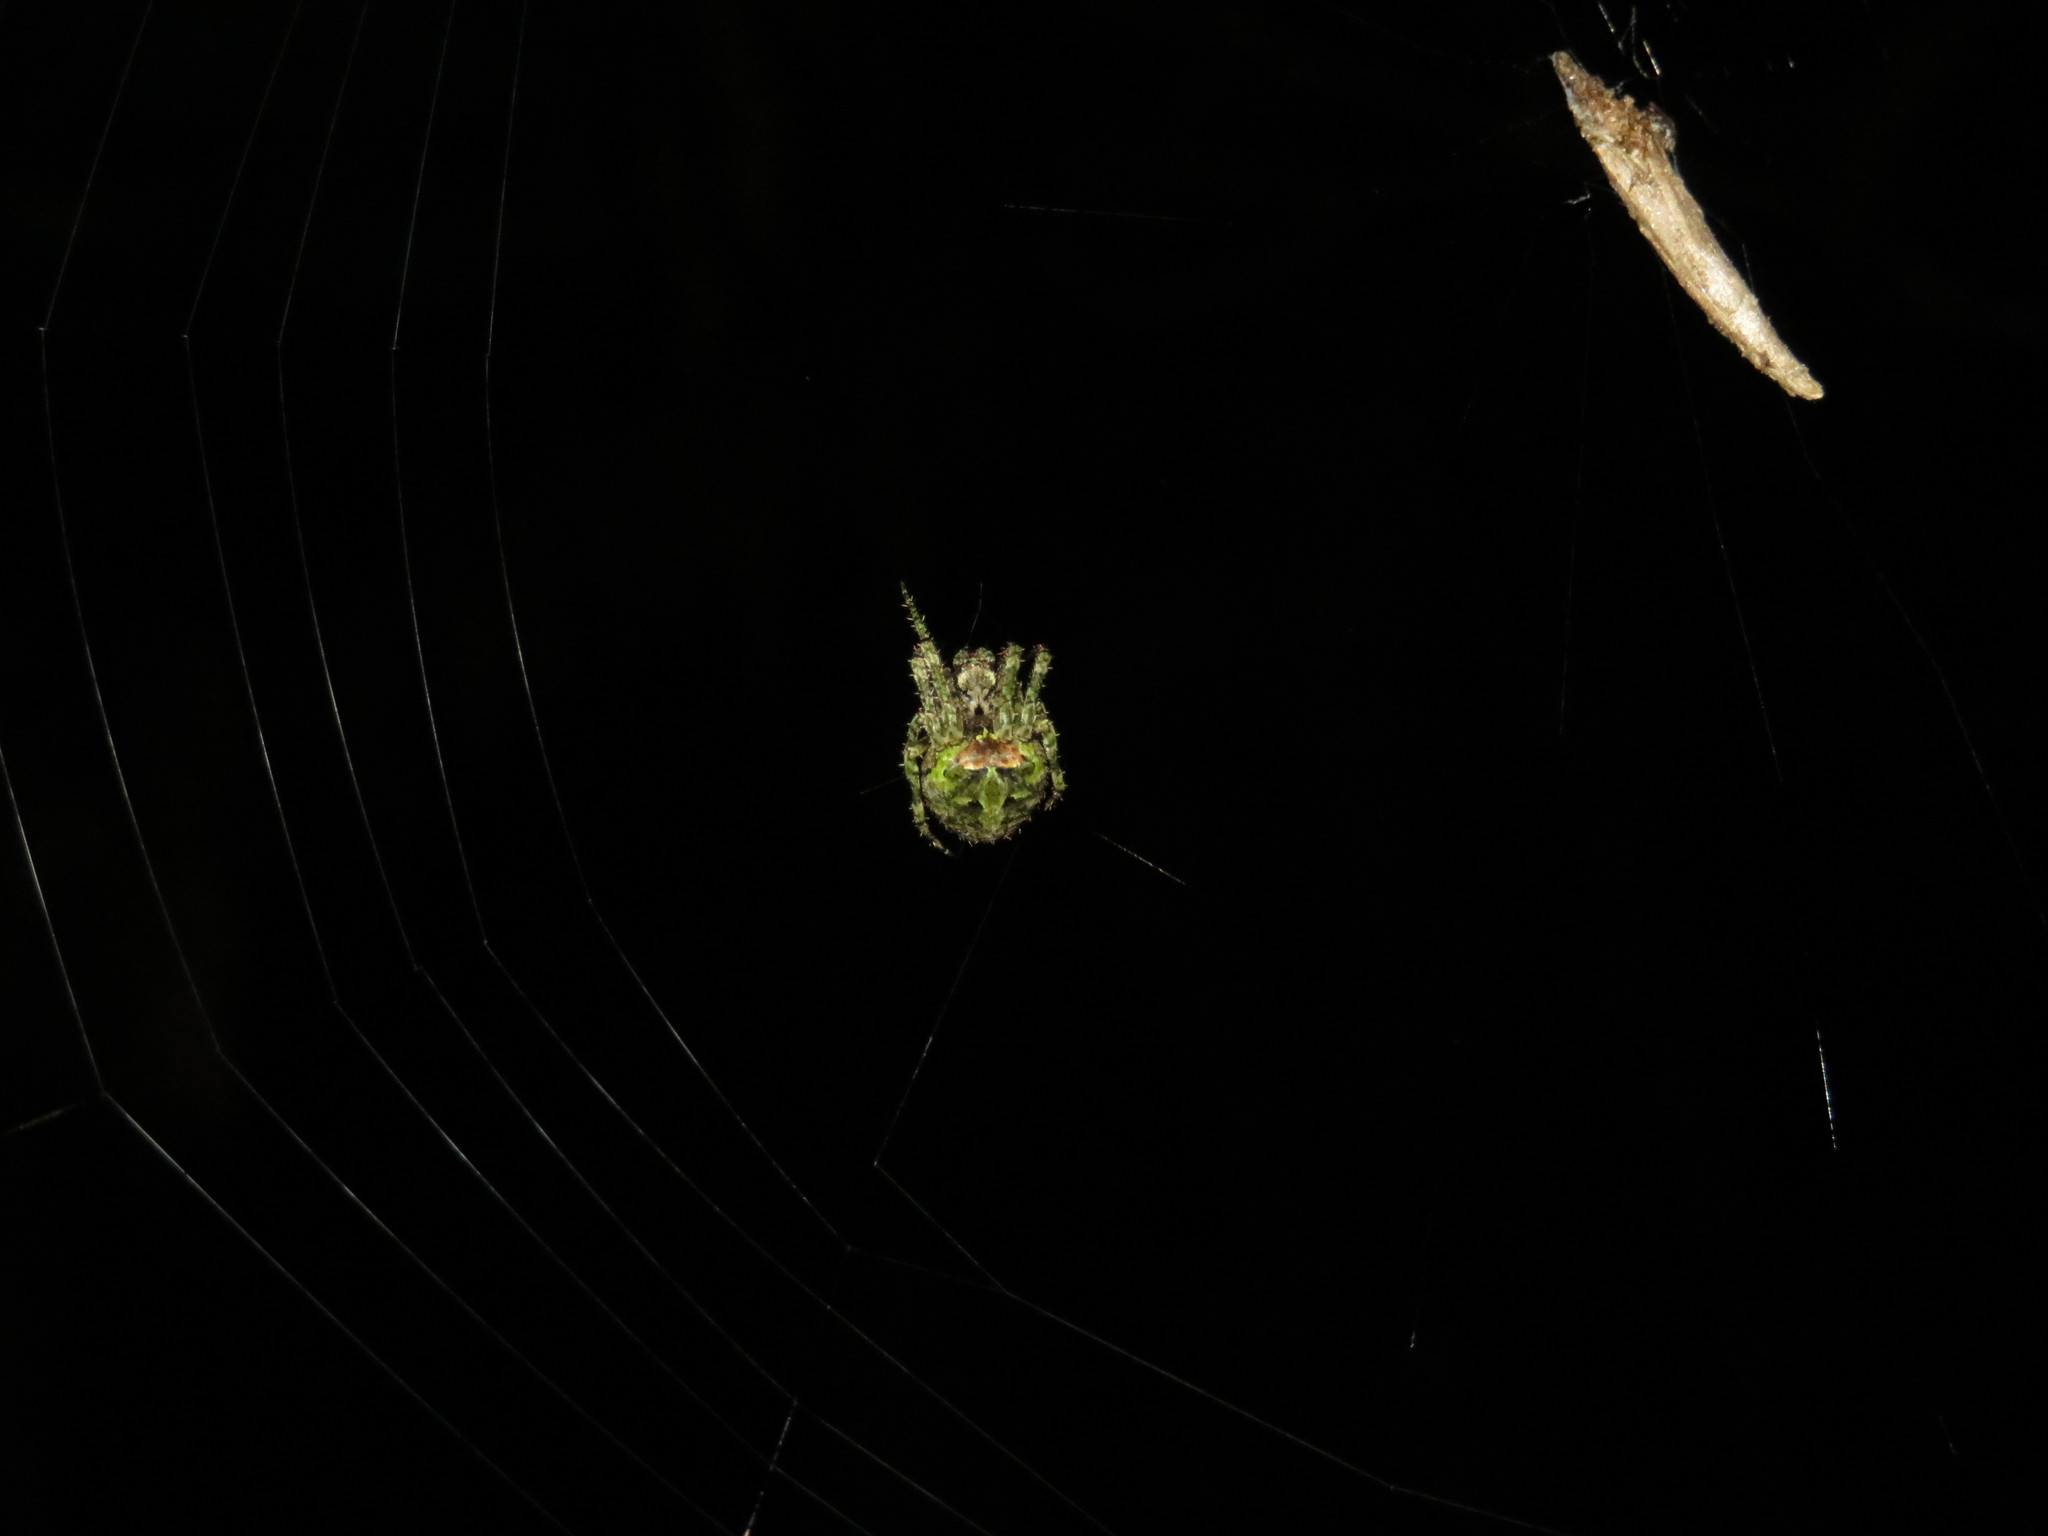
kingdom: Animalia
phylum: Arthropoda
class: Arachnida
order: Araneae
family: Araneidae
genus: Cryptaranea
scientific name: Cryptaranea atrihastula
